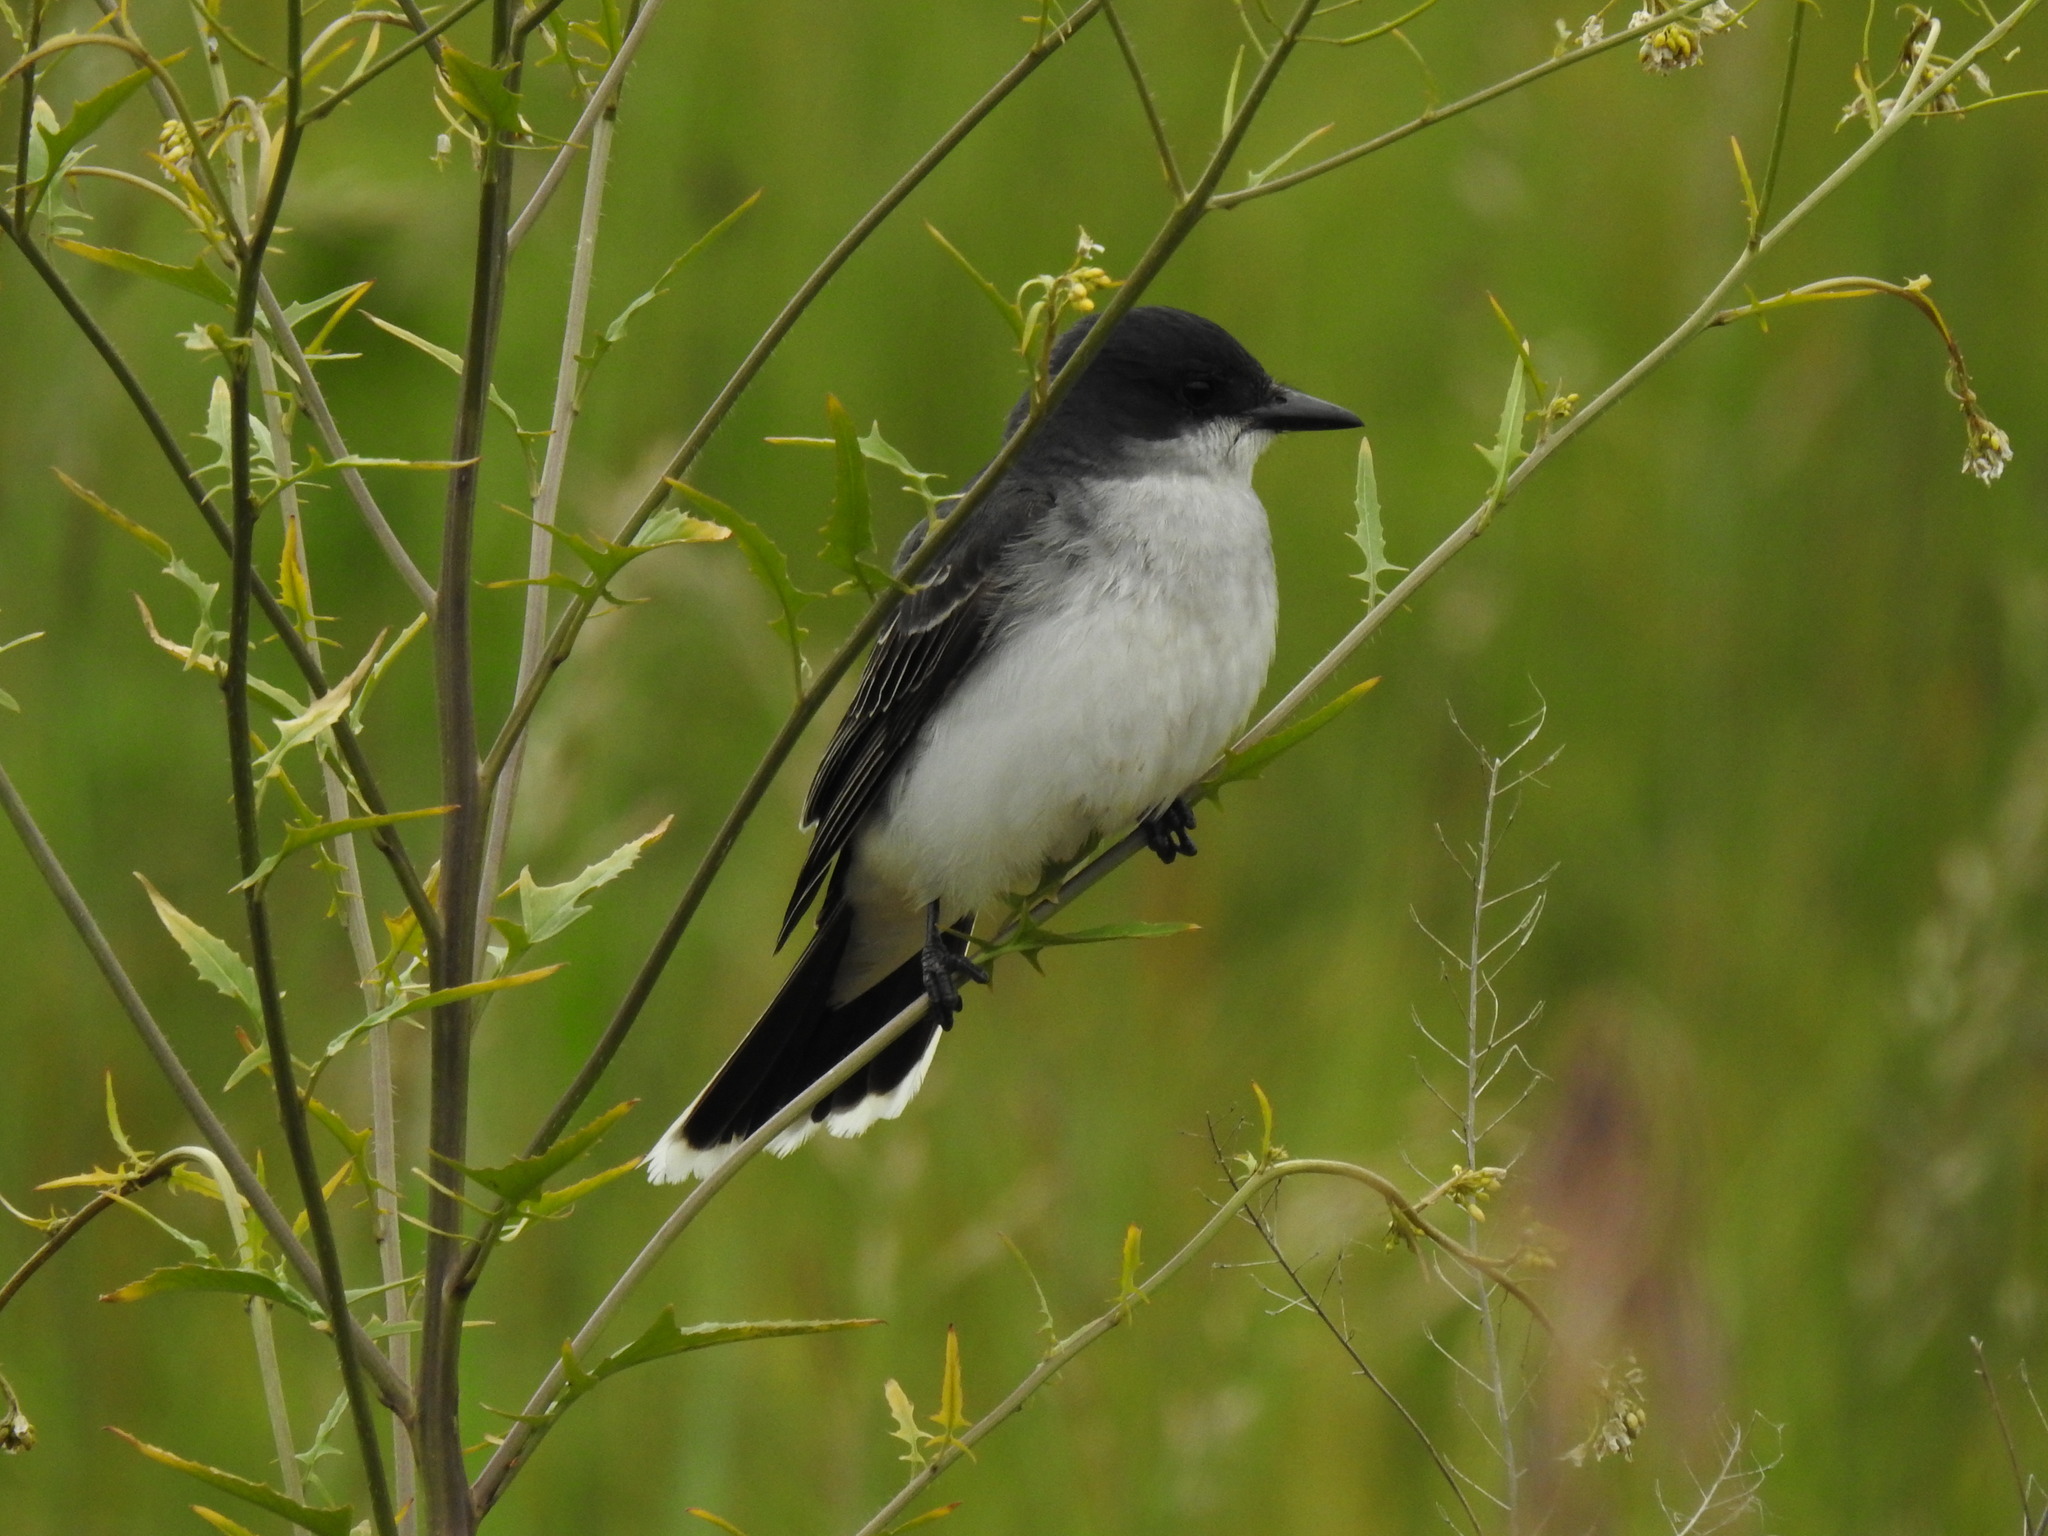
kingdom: Animalia
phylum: Chordata
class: Aves
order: Passeriformes
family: Tyrannidae
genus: Tyrannus
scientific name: Tyrannus tyrannus
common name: Eastern kingbird
